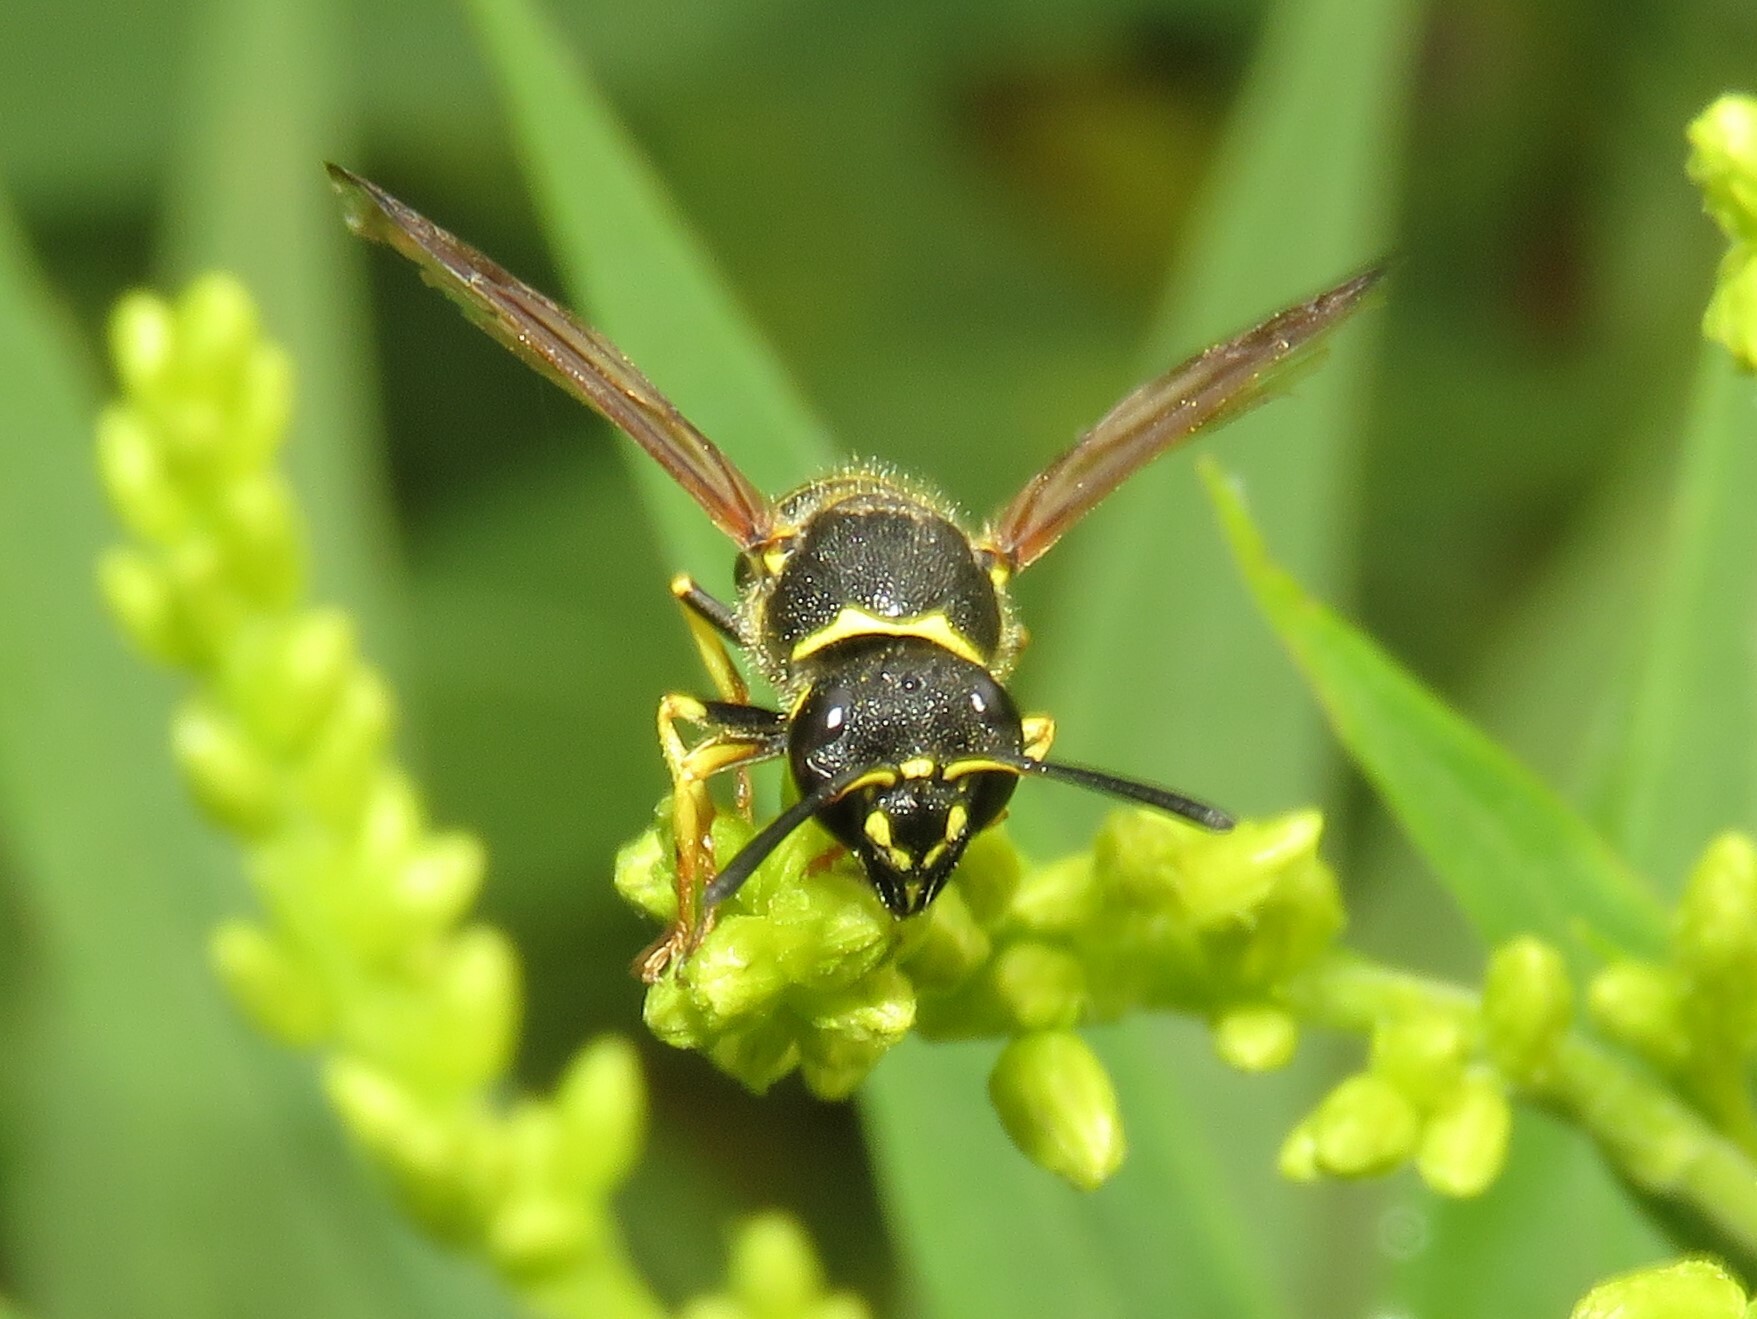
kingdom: Animalia
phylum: Arthropoda
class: Insecta
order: Hymenoptera
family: Vespidae
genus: Ancistrocerus
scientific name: Ancistrocerus catskill
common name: Vespid wasp
